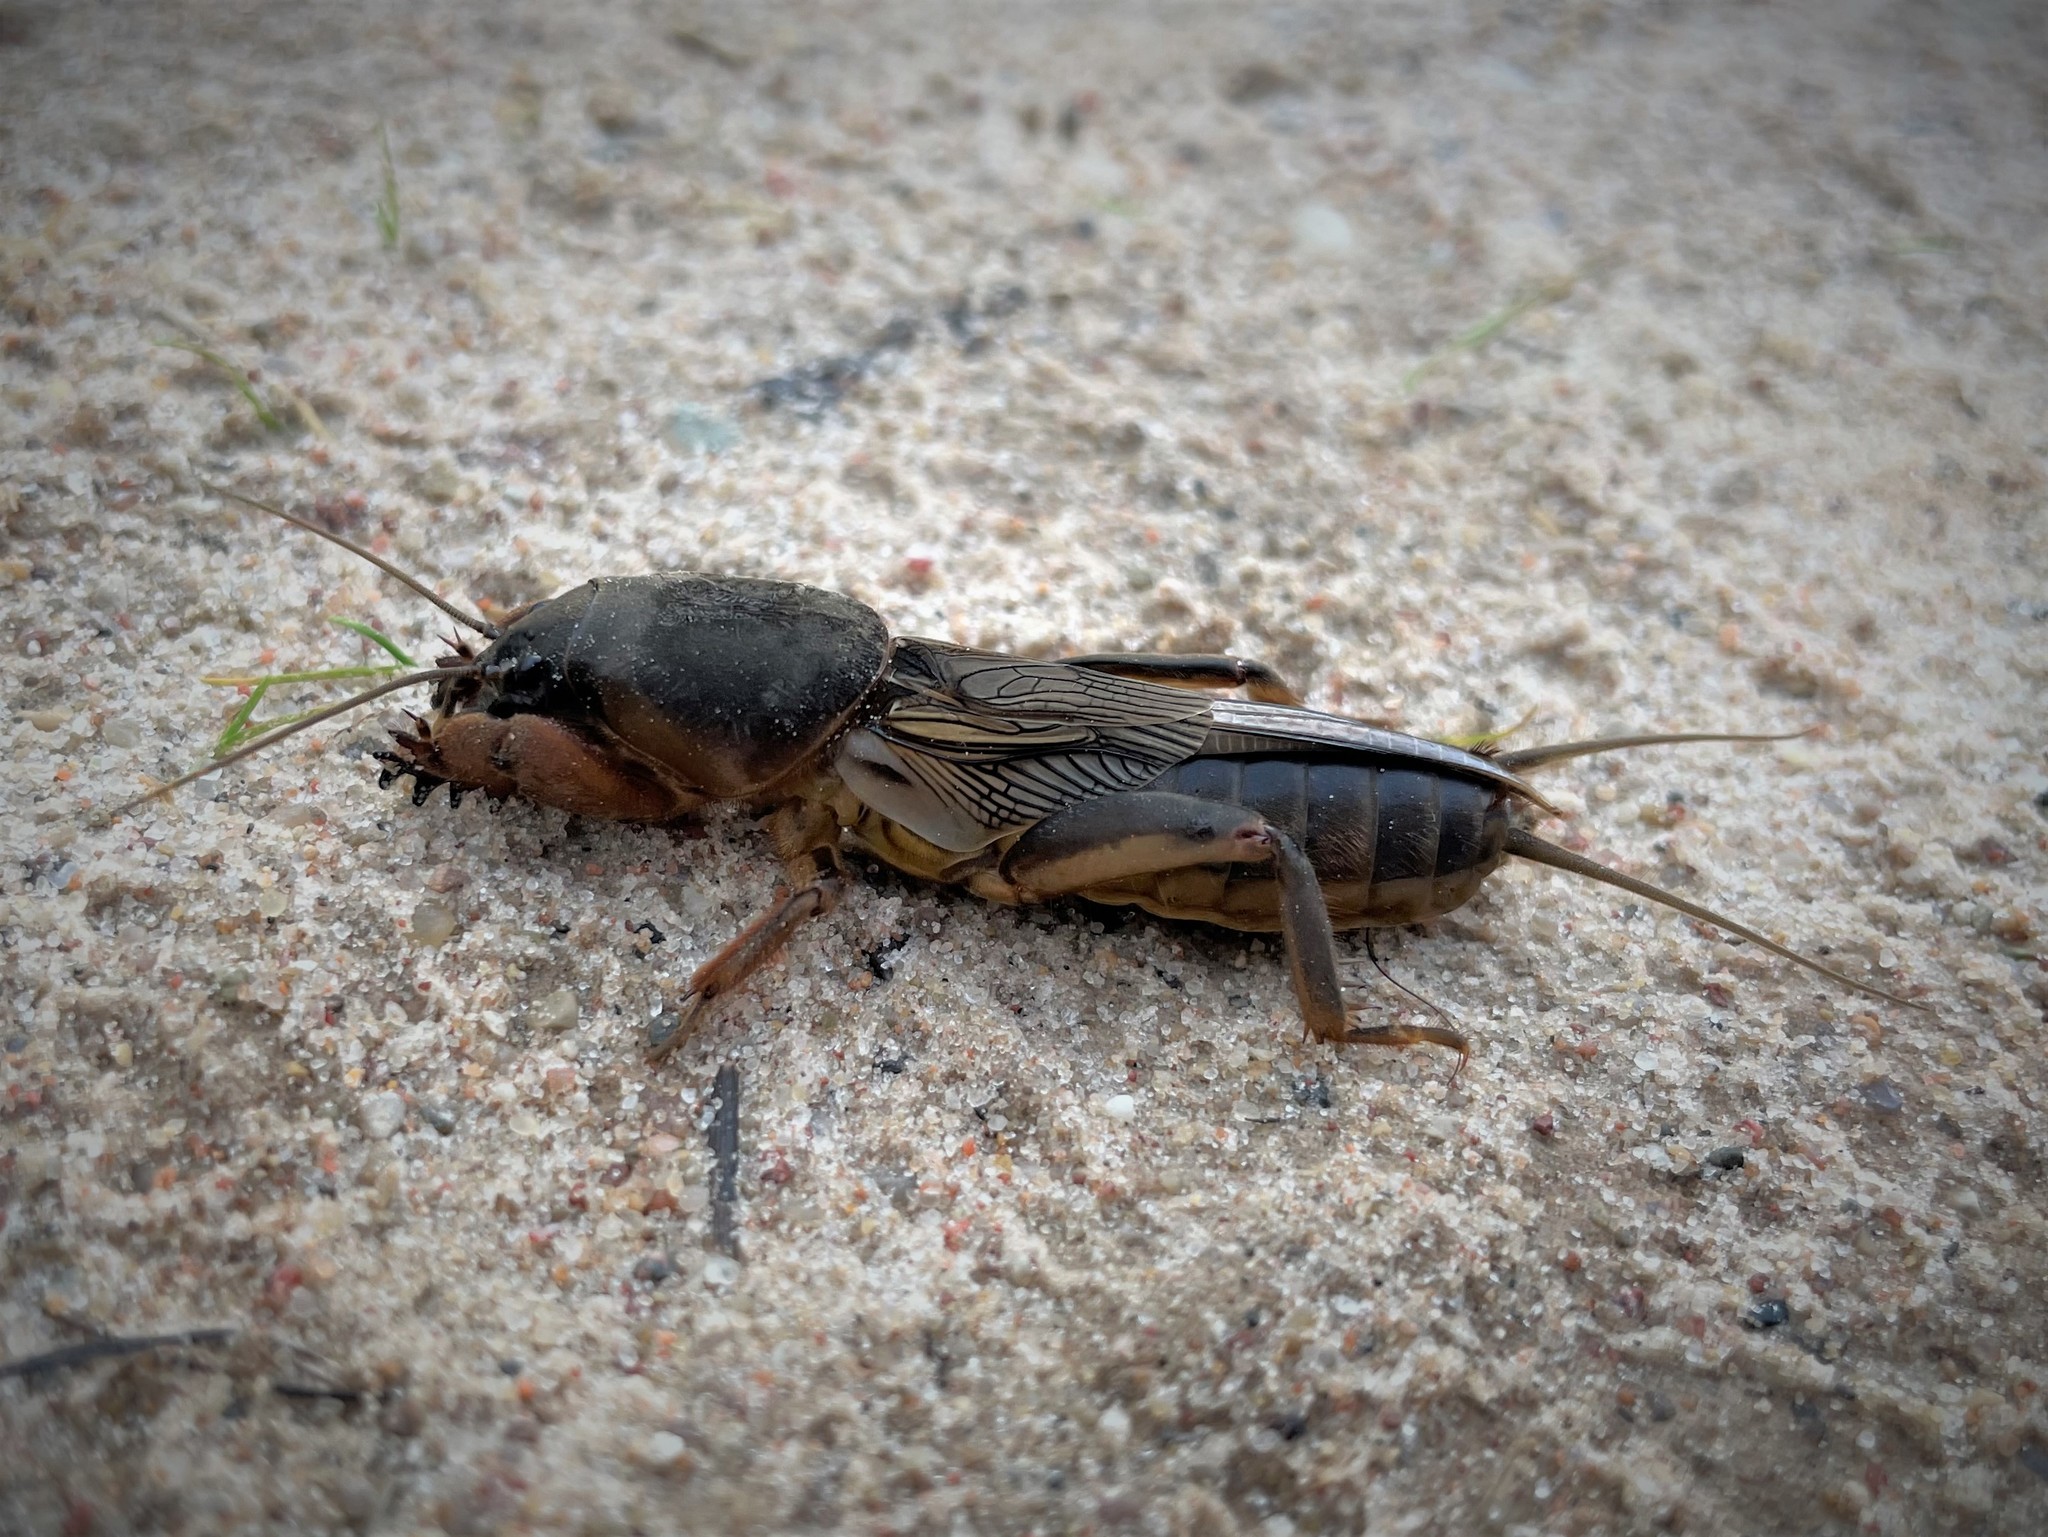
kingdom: Animalia
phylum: Arthropoda
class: Insecta
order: Orthoptera
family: Gryllotalpidae
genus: Gryllotalpa
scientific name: Gryllotalpa gryllotalpa
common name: European mole cricket
